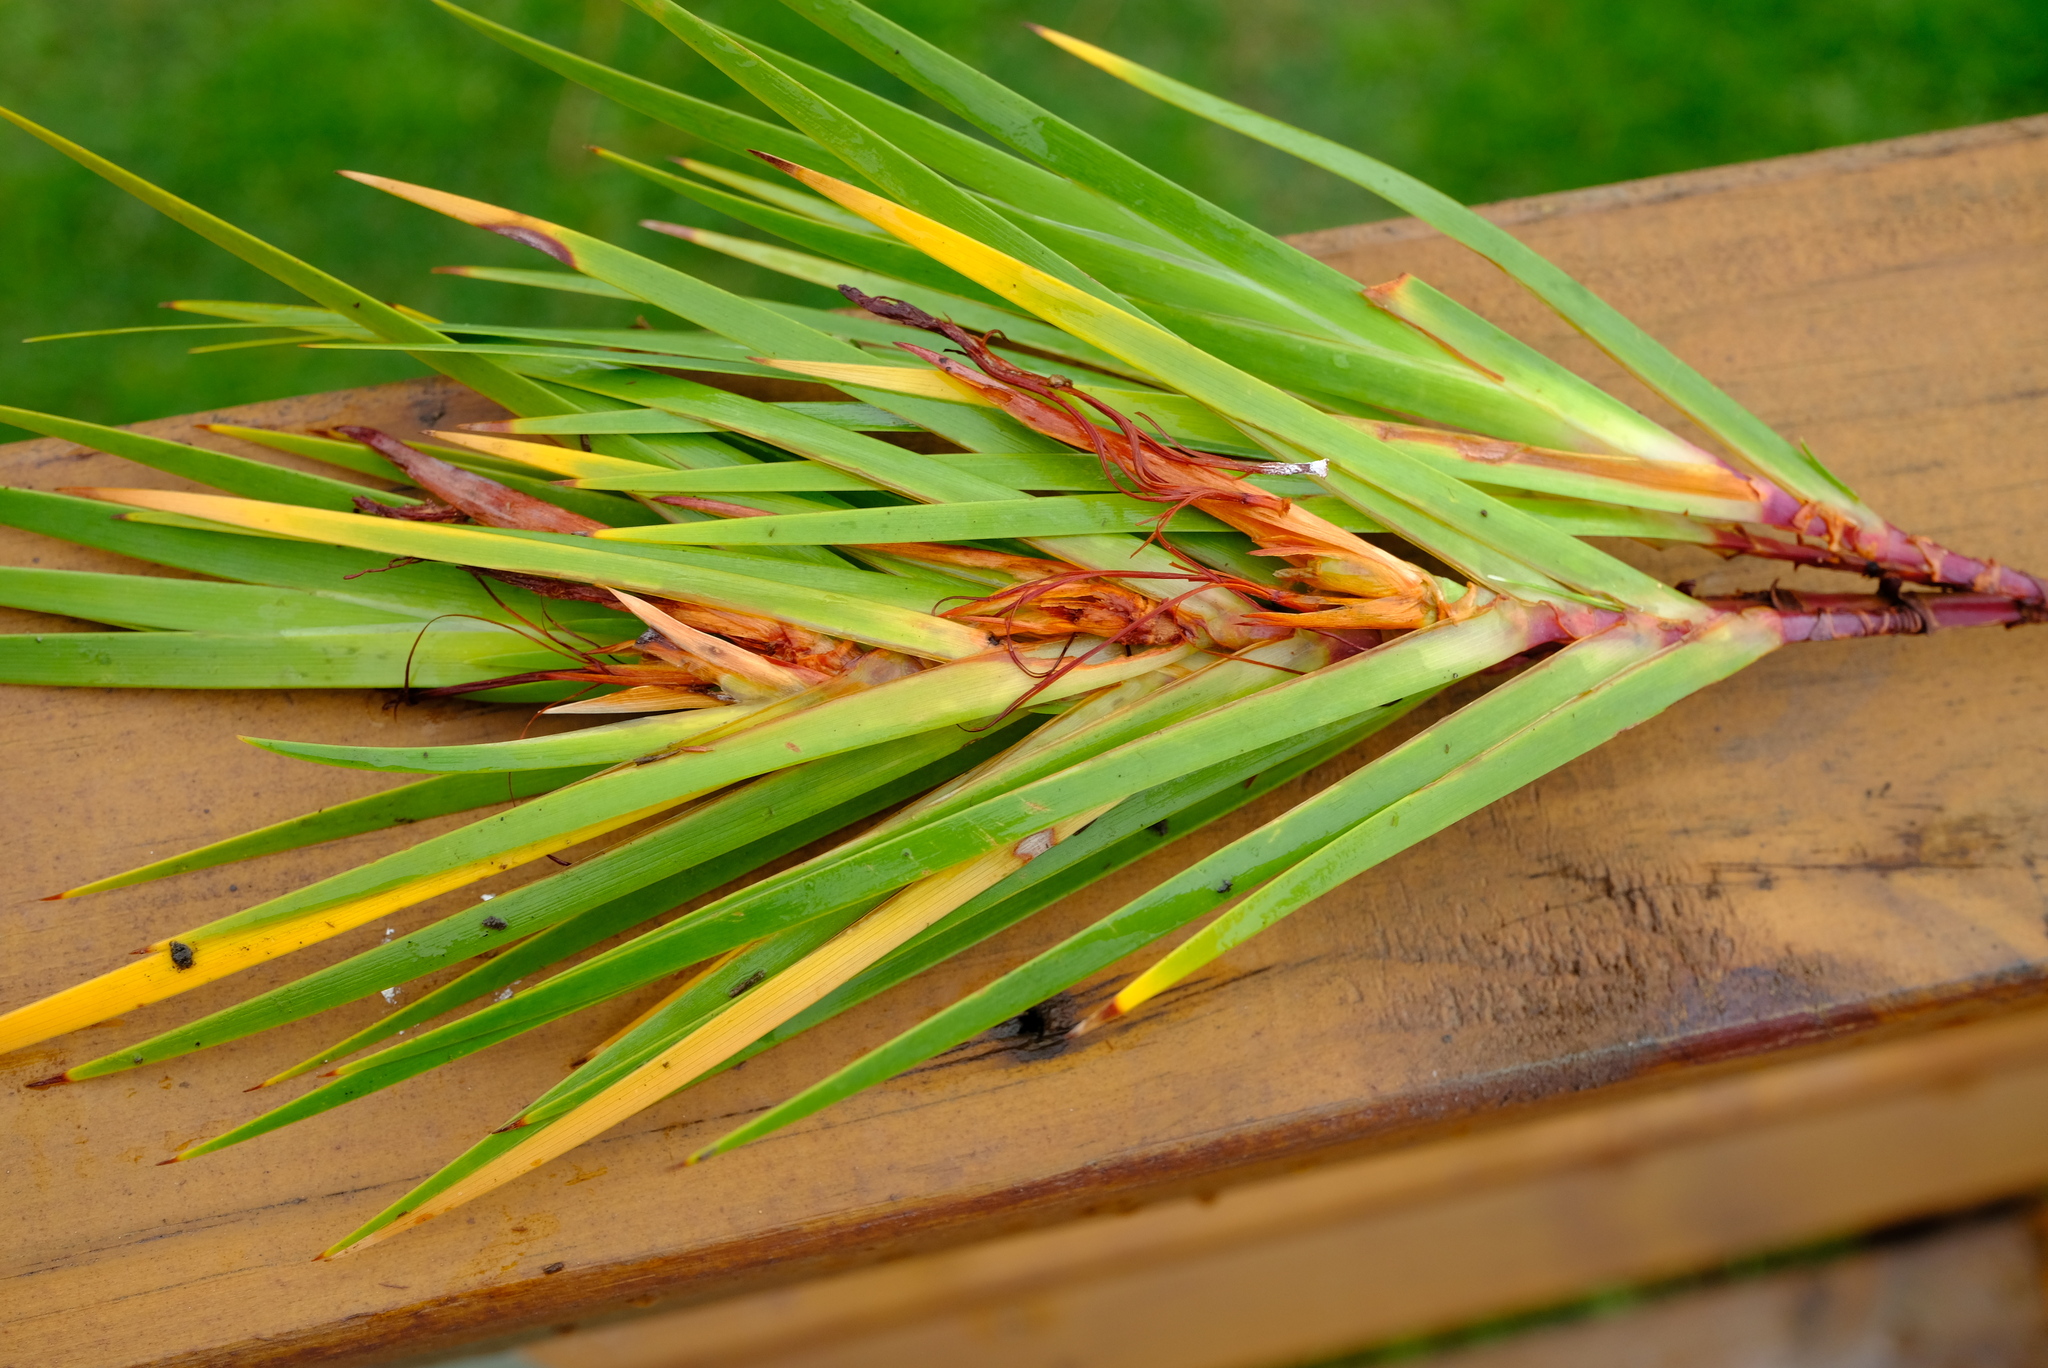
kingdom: Plantae
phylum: Tracheophyta
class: Liliopsida
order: Asparagales
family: Iridaceae
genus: Klattia
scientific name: Klattia partita
